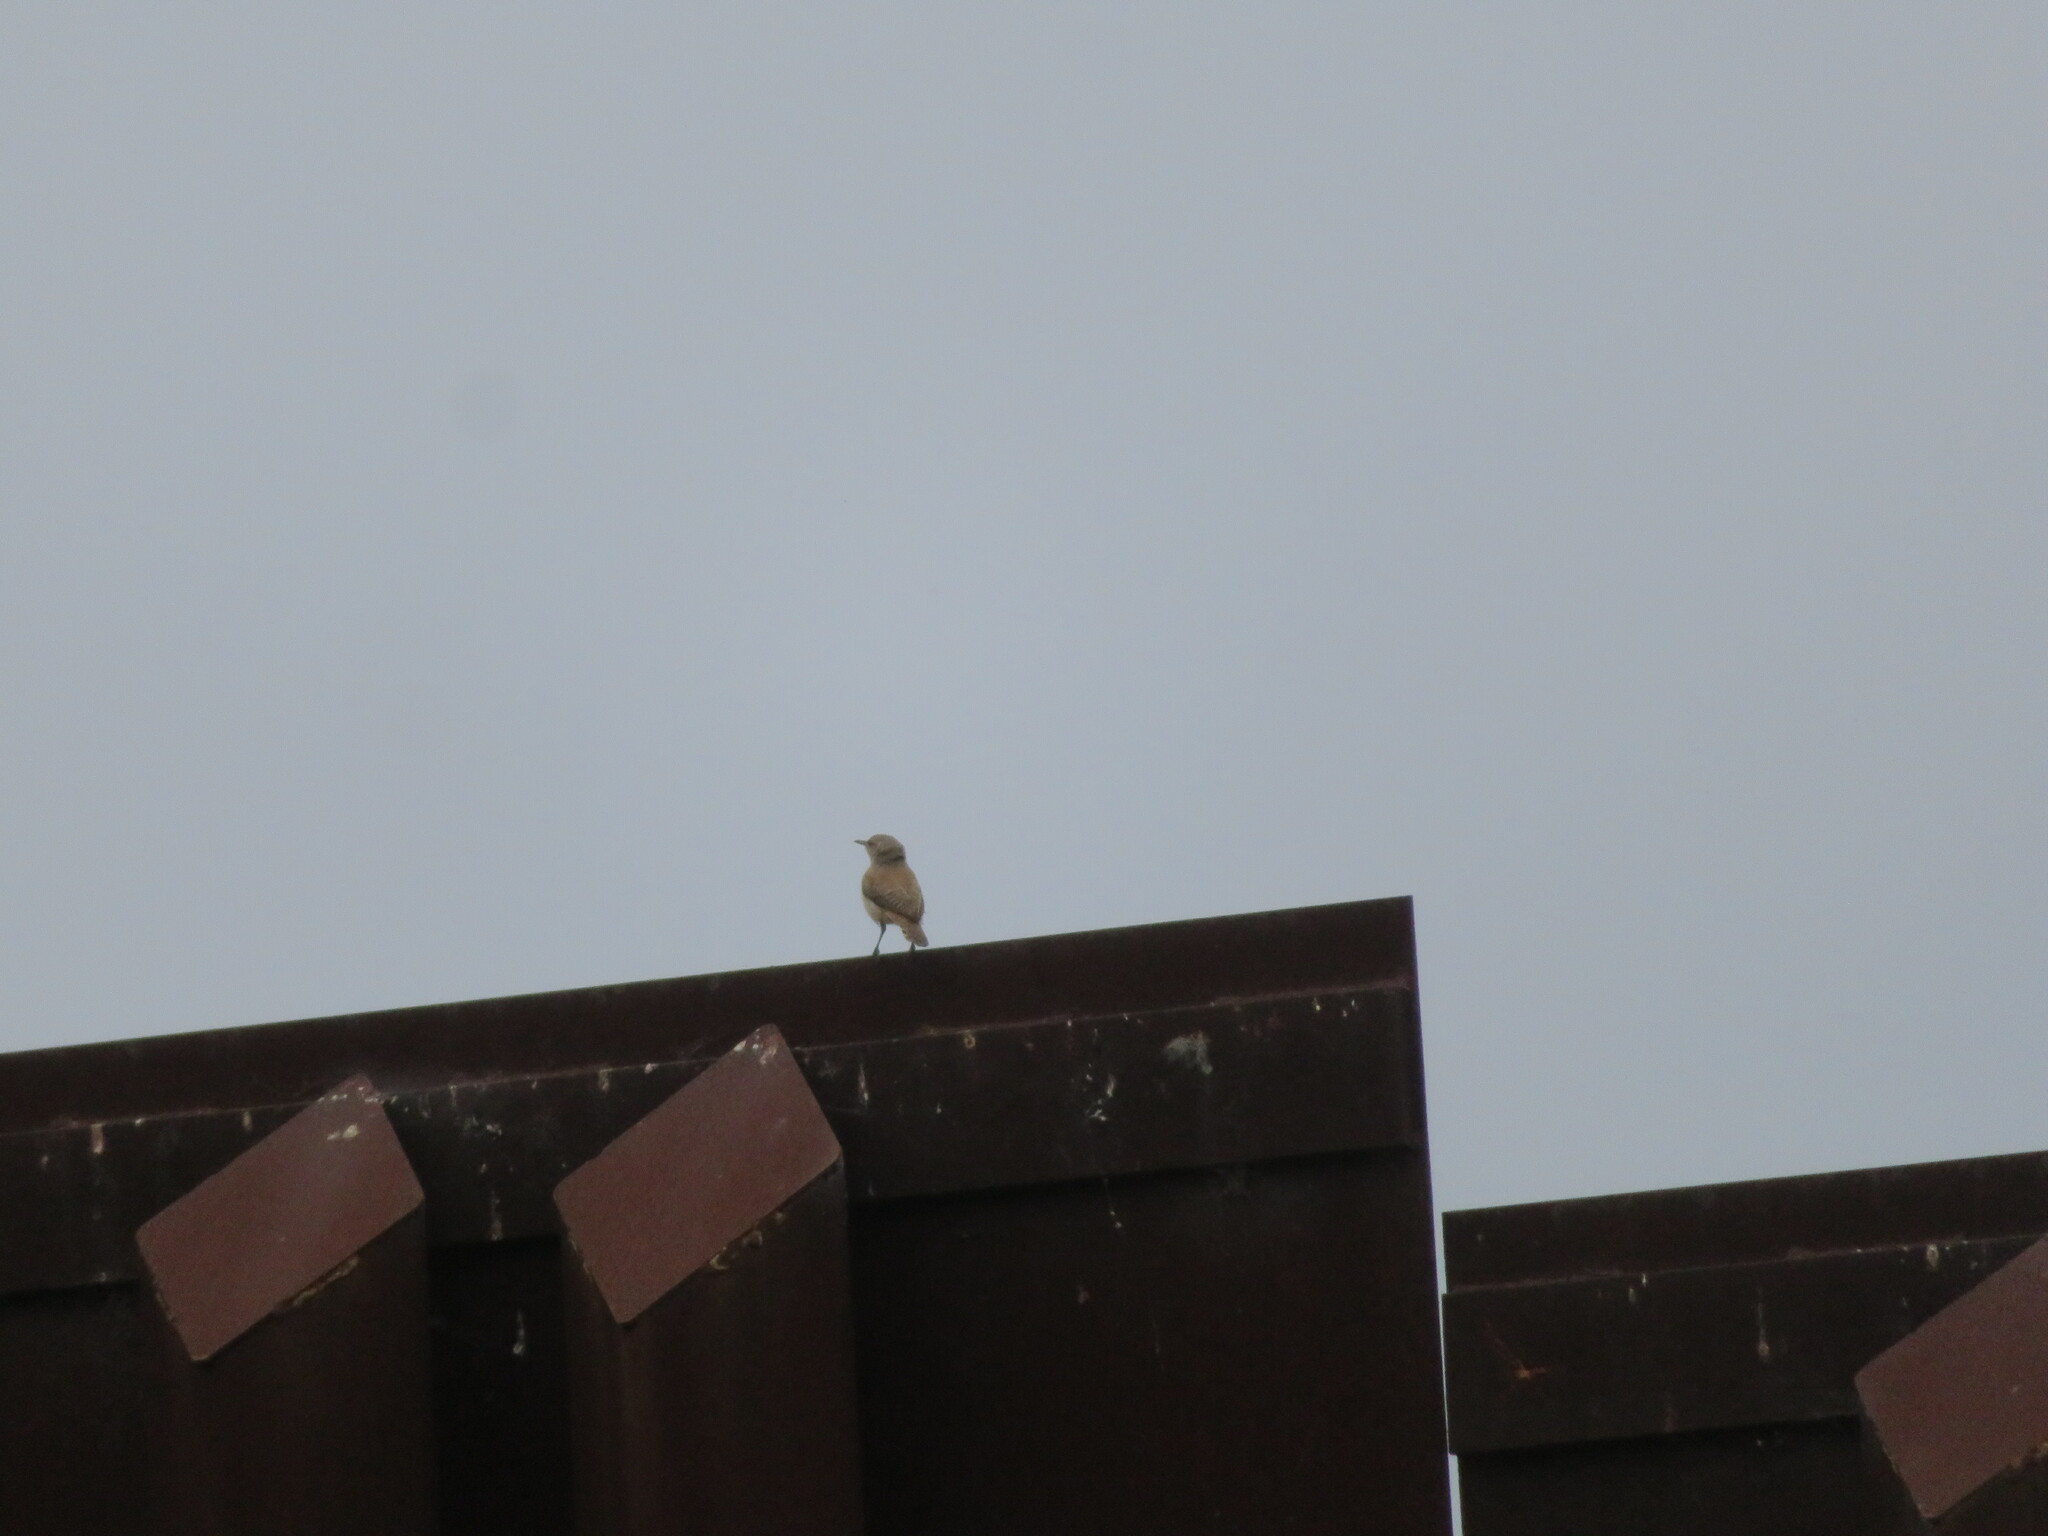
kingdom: Animalia
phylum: Chordata
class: Aves
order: Passeriformes
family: Troglodytidae
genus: Salpinctes
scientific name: Salpinctes obsoletus
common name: Rock wren
